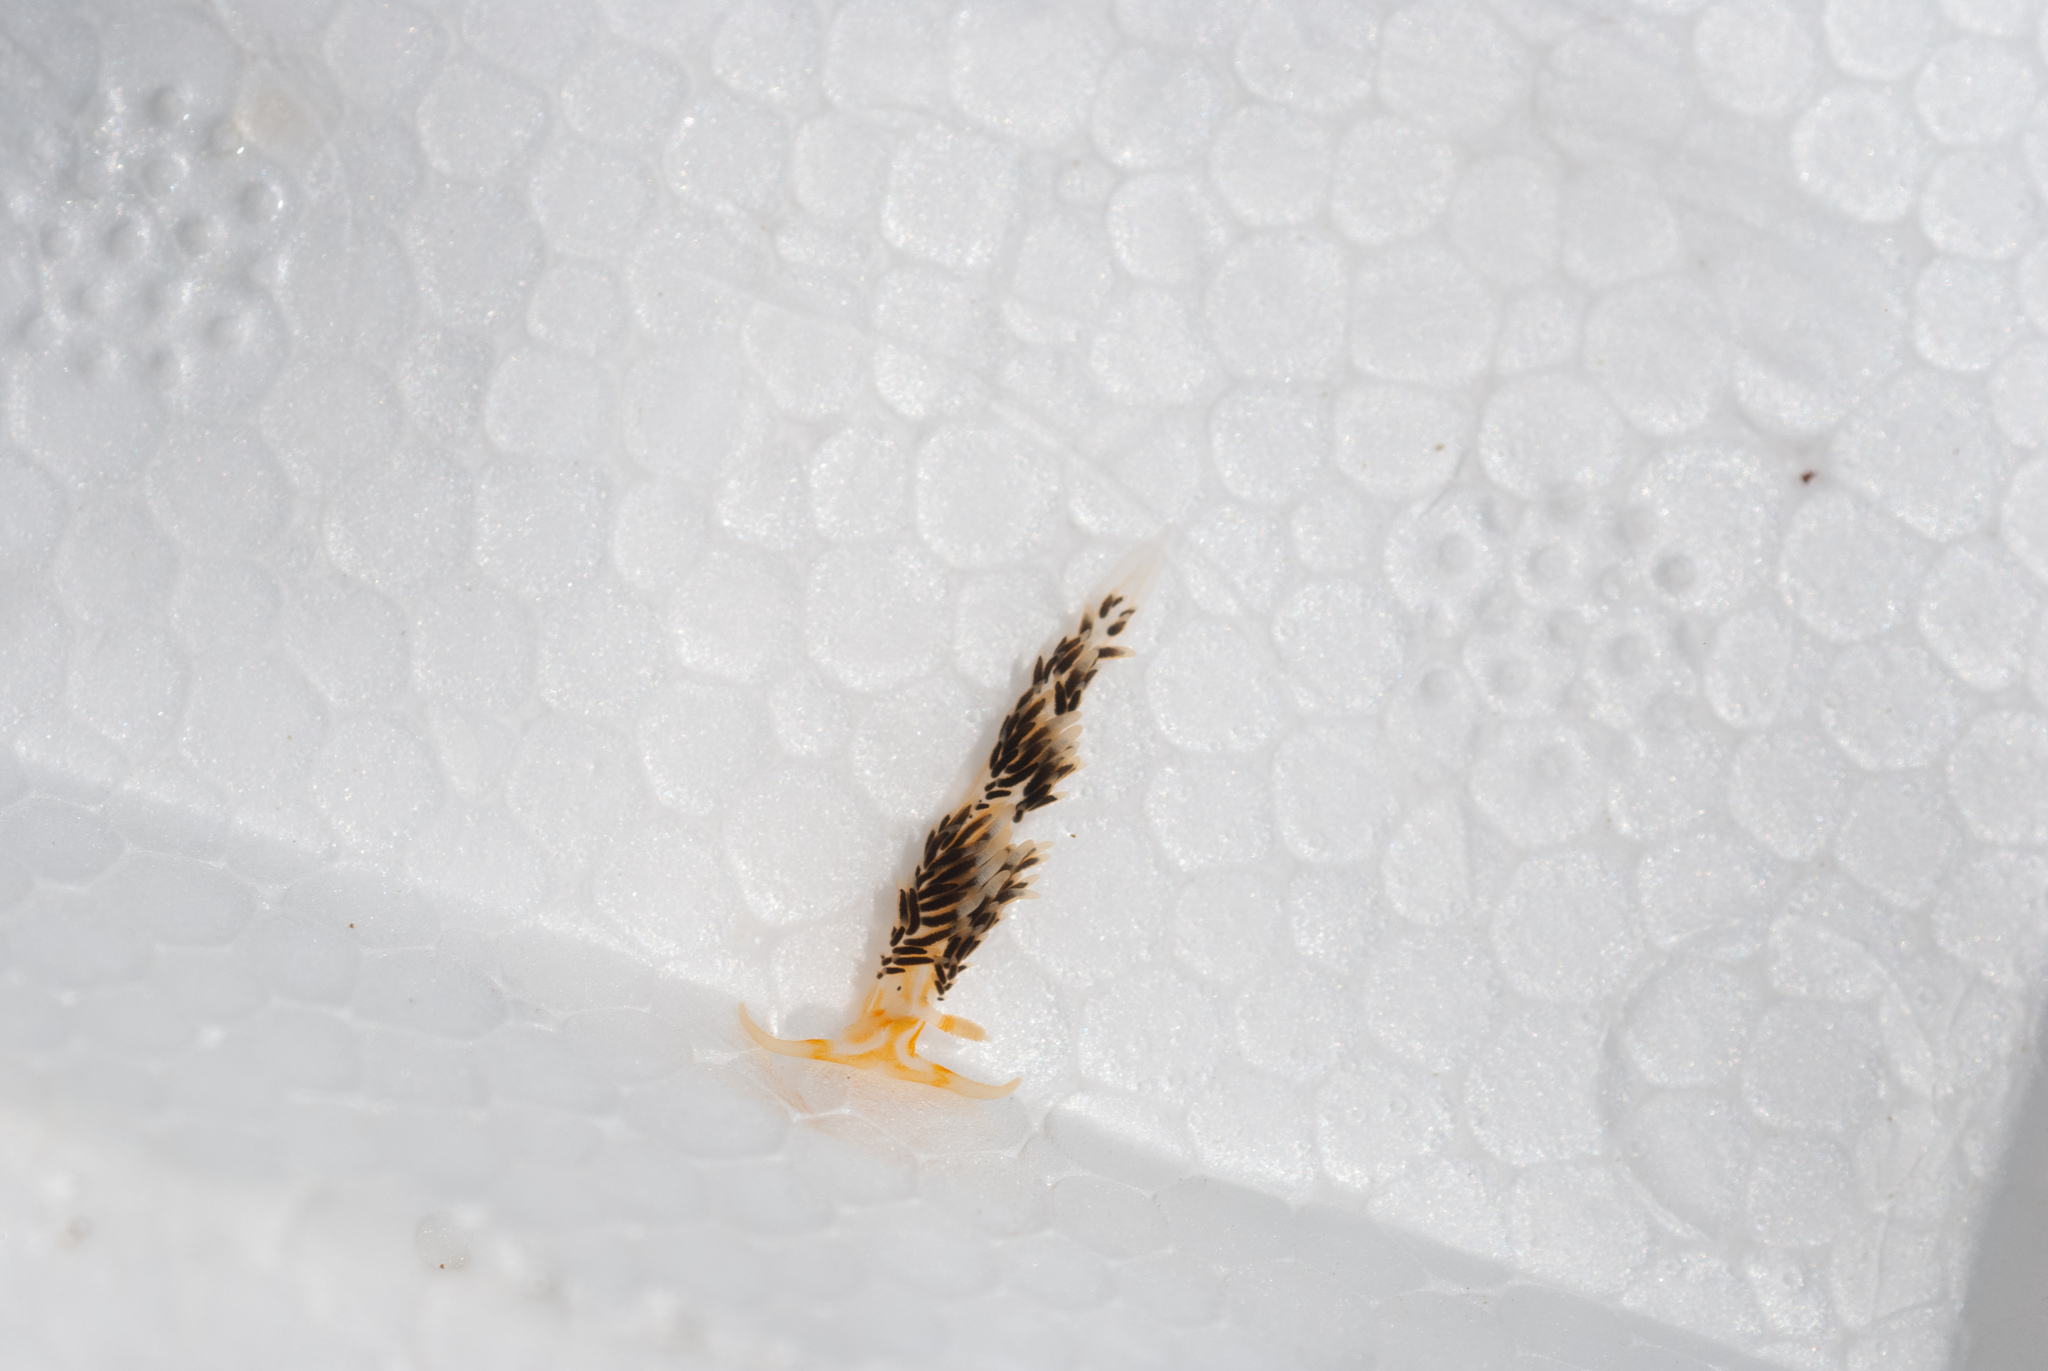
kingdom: Animalia
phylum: Mollusca
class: Gastropoda
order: Nudibranchia
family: Facelinidae
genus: Phidiana
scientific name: Phidiana lynceus
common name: Lynx nudibranch
